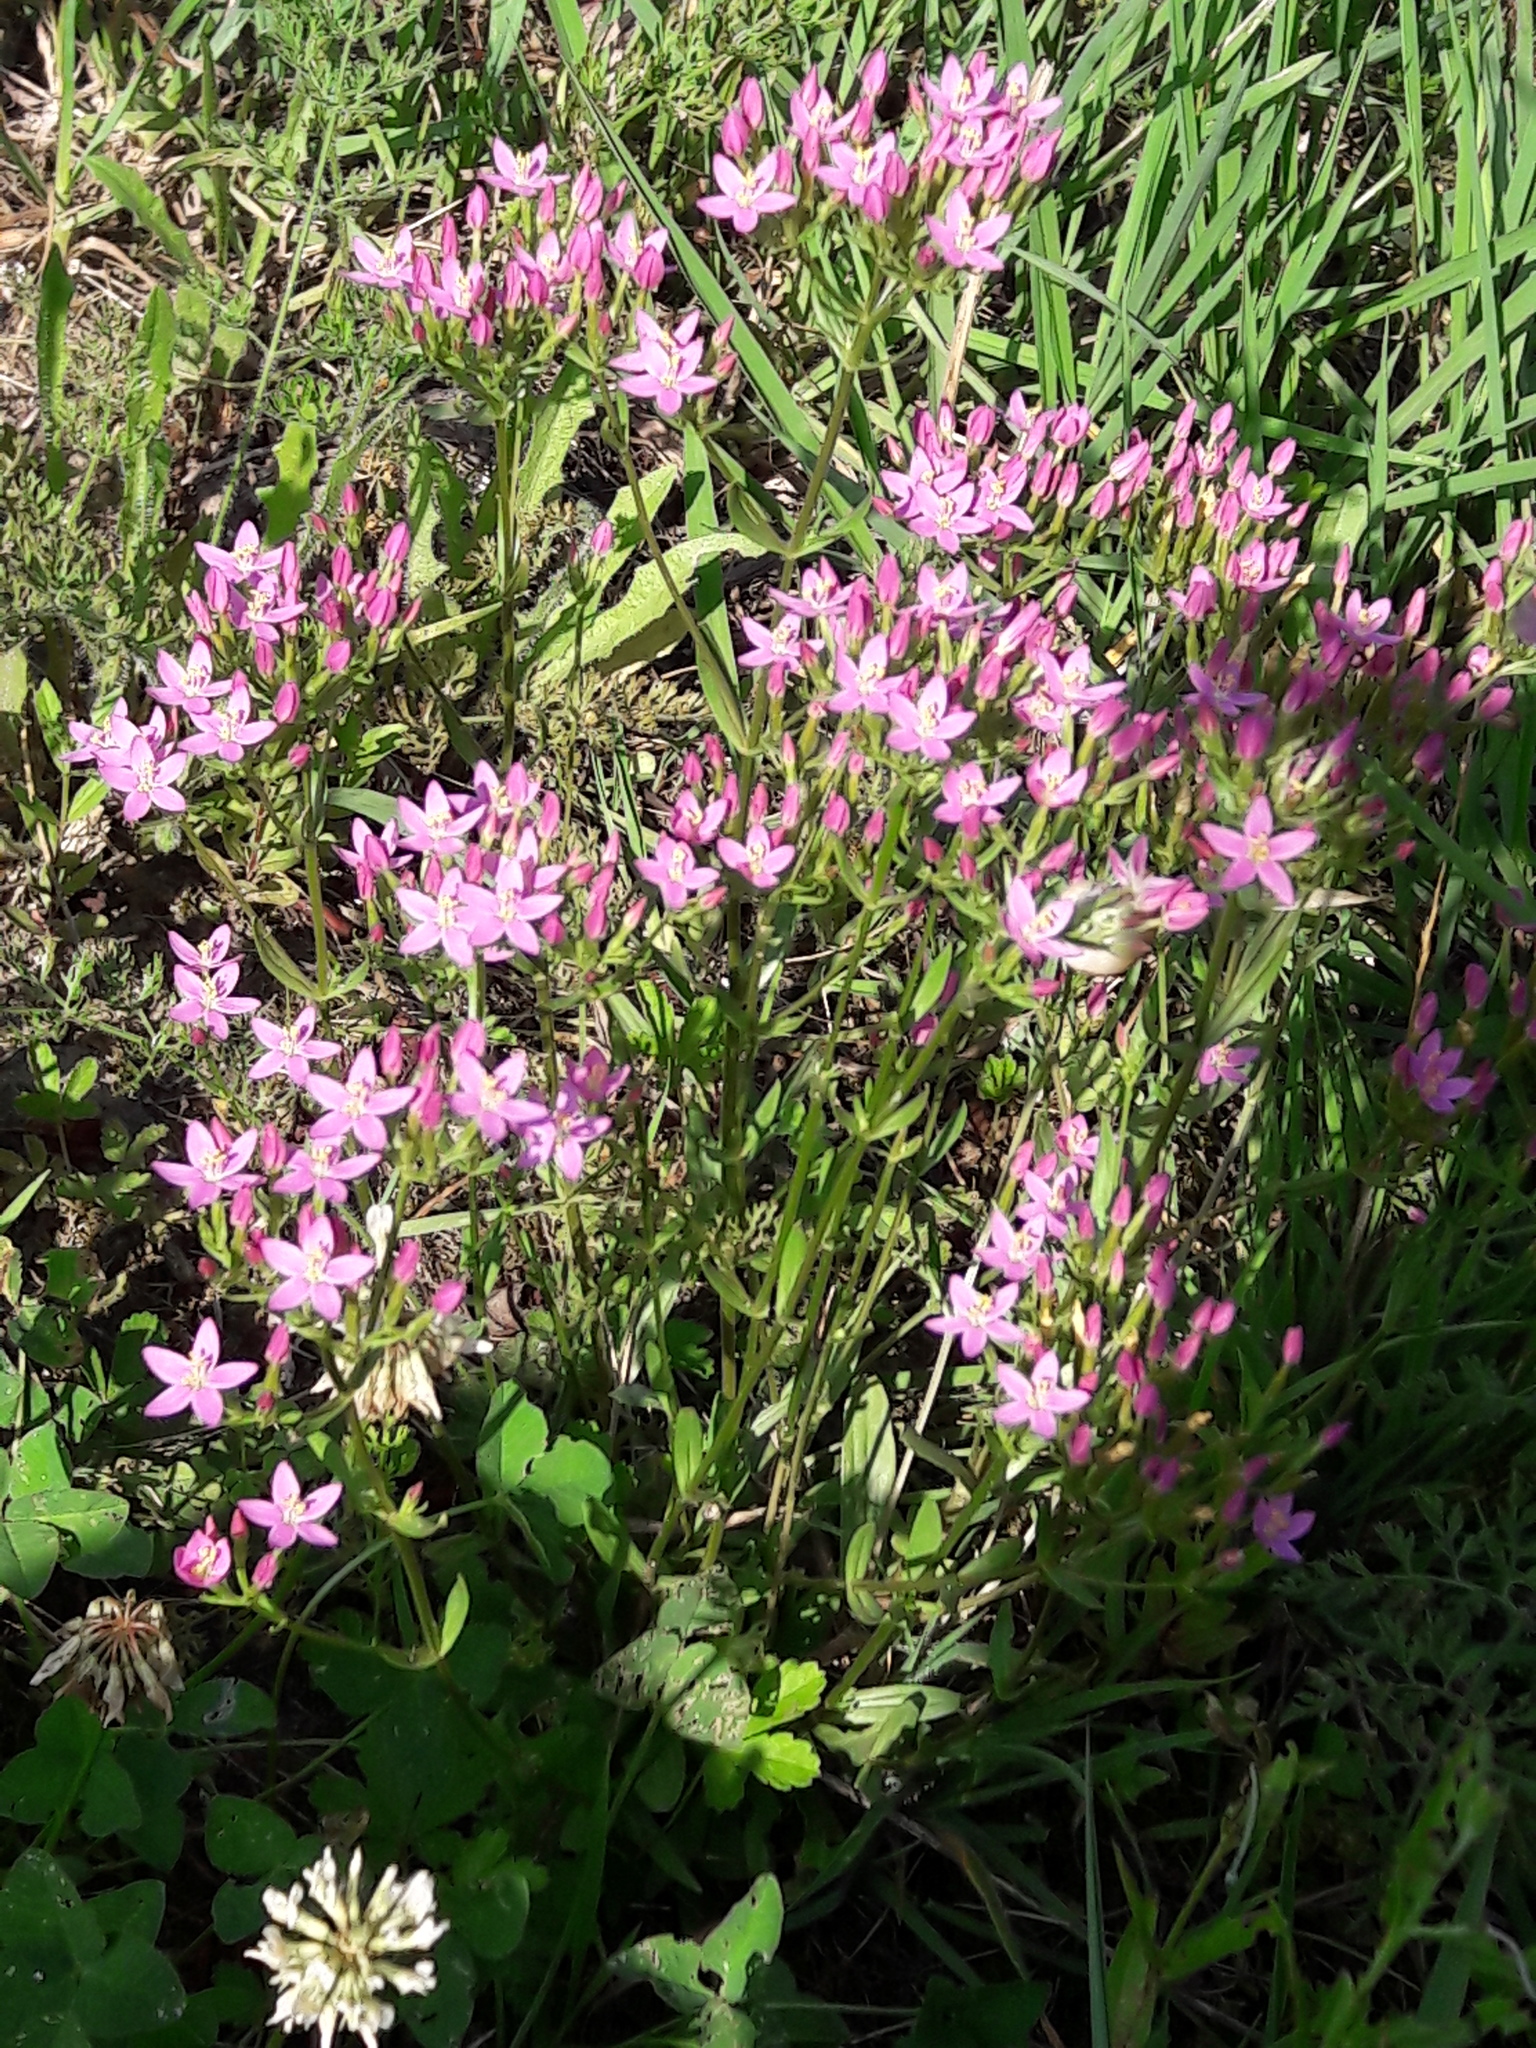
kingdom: Plantae
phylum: Tracheophyta
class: Magnoliopsida
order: Gentianales
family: Gentianaceae
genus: Centaurium
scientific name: Centaurium erythraea
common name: Common centaury
